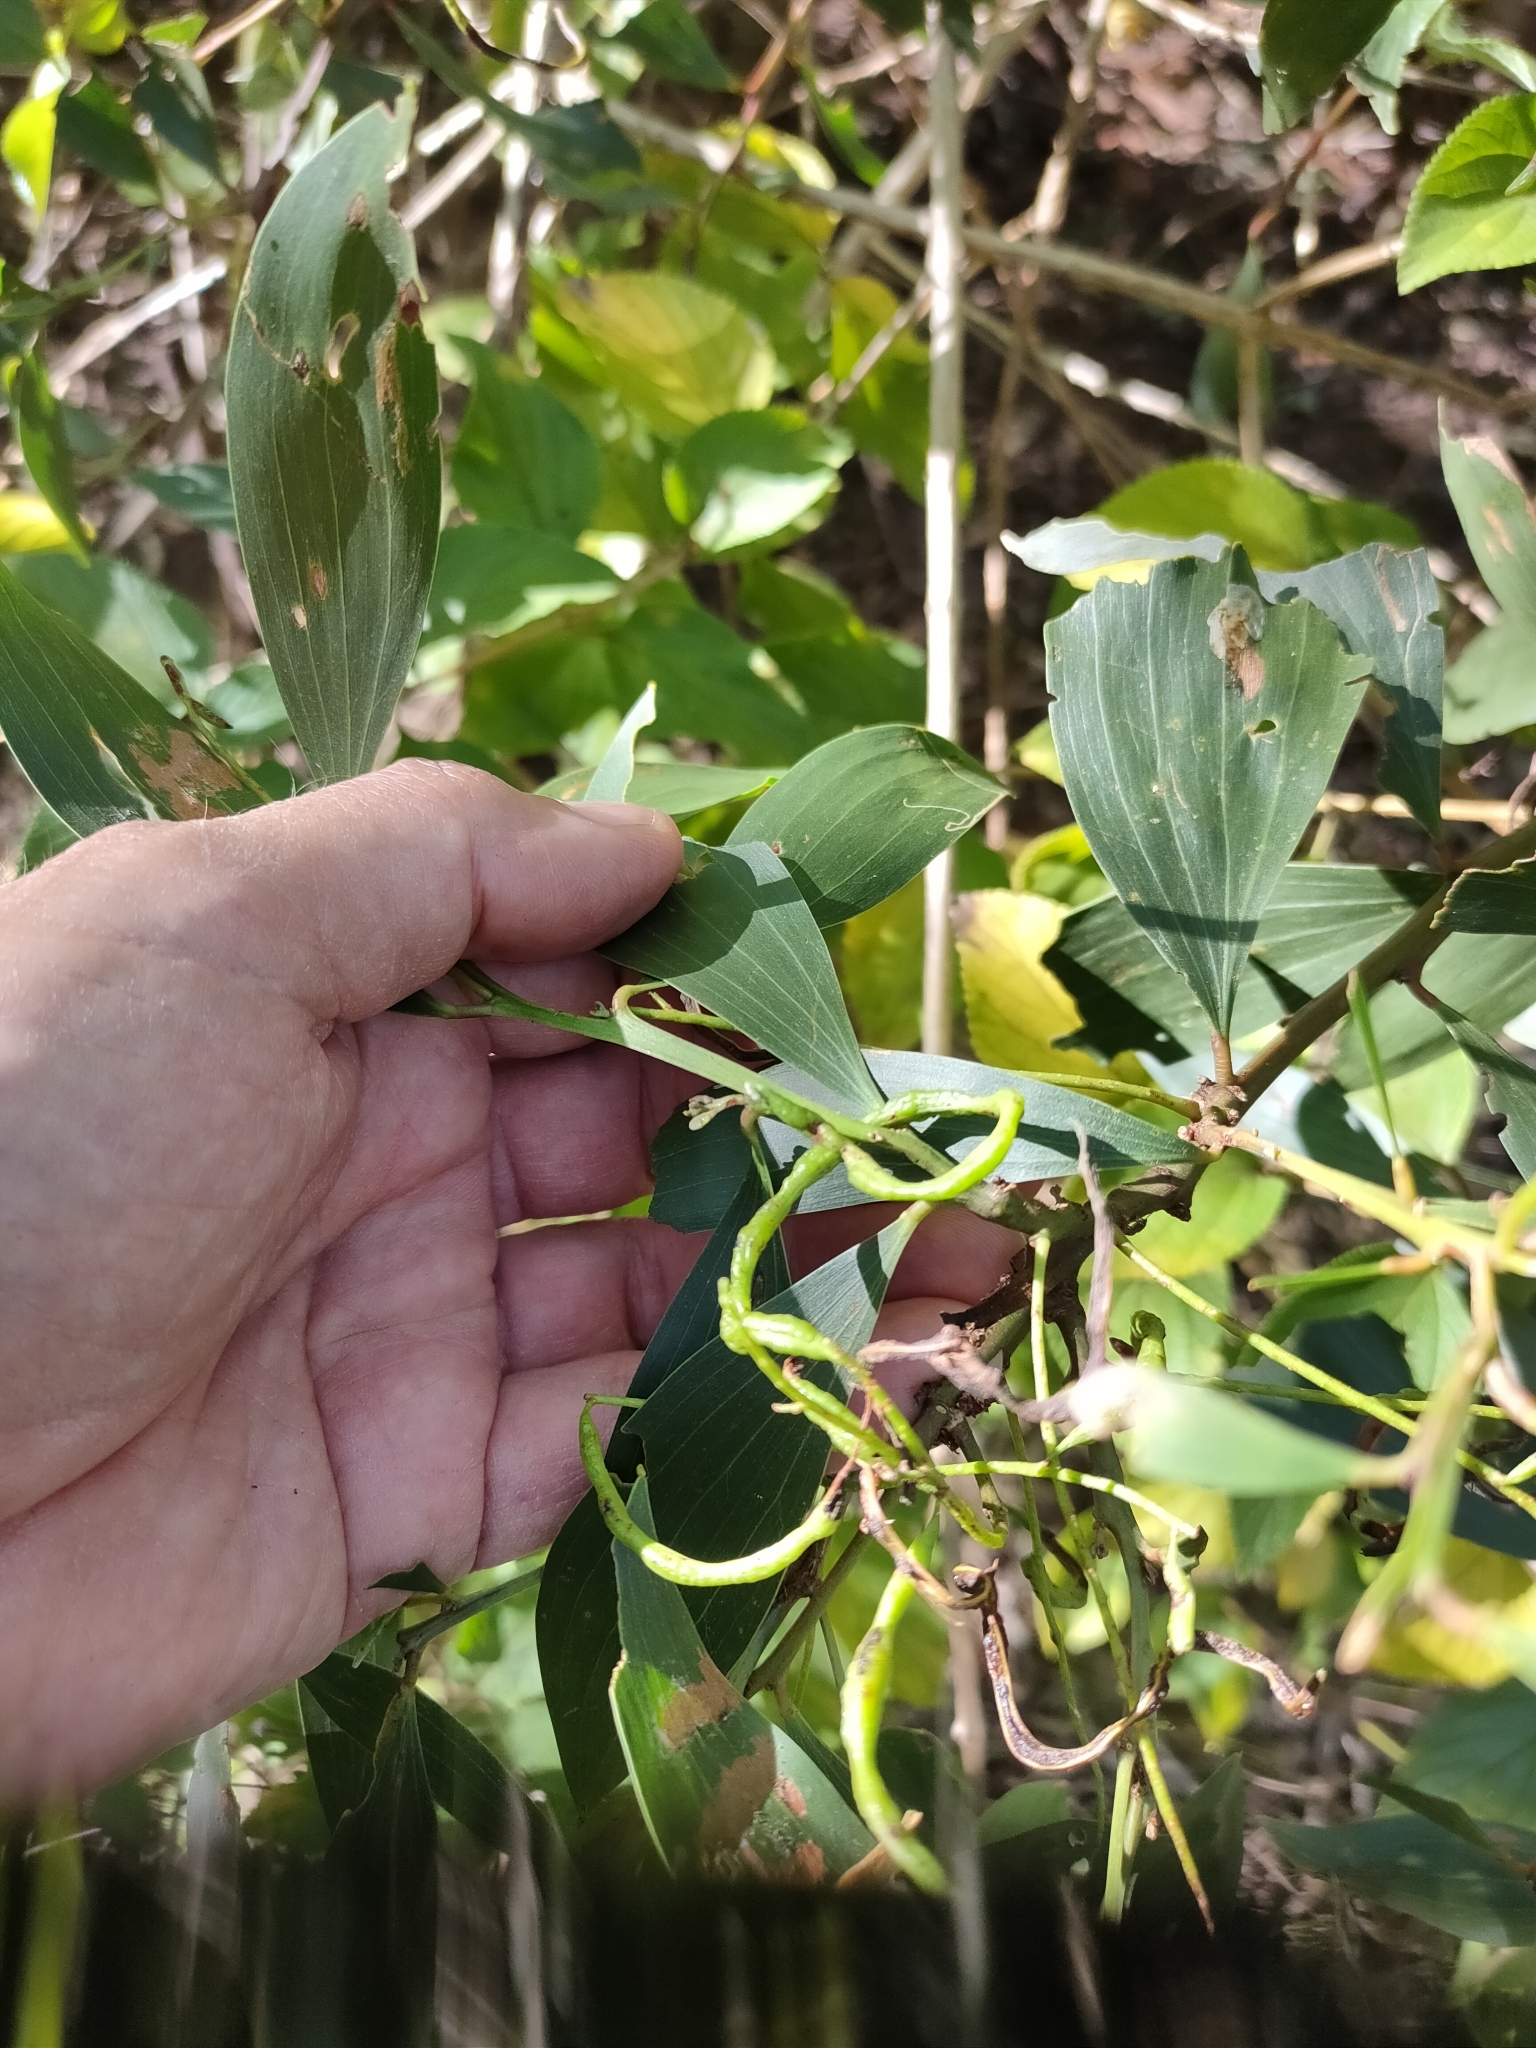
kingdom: Plantae
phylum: Tracheophyta
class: Magnoliopsida
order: Fabales
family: Fabaceae
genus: Acacia
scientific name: Acacia leiocalyx
